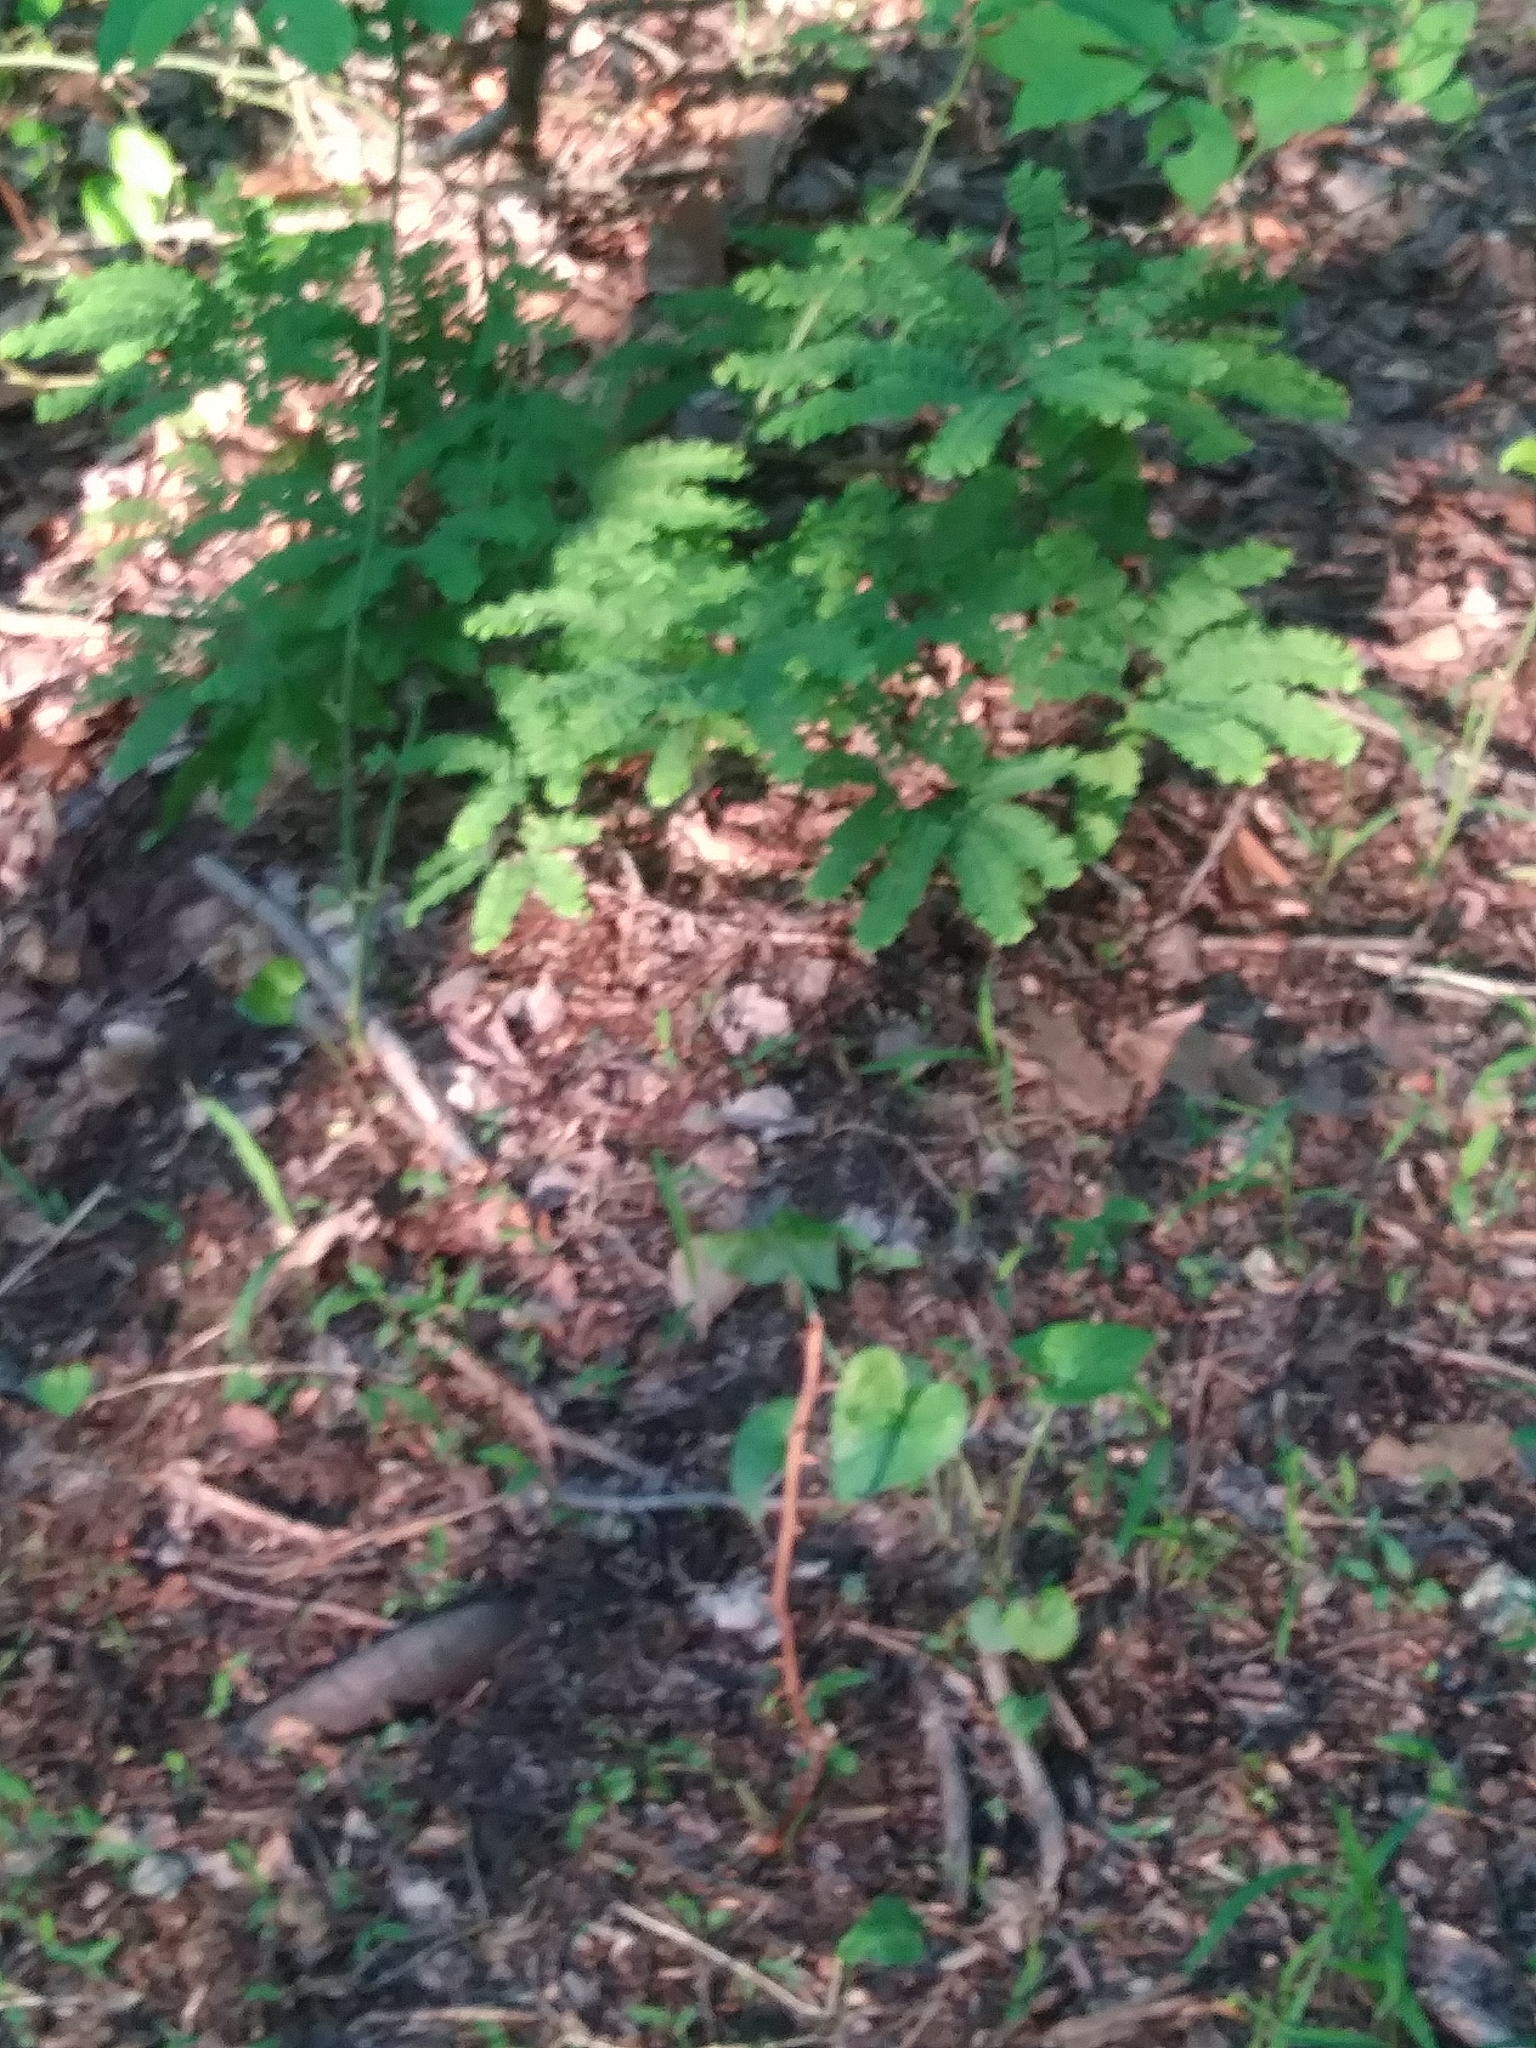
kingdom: Plantae
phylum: Tracheophyta
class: Polypodiopsida
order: Polypodiales
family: Pteridaceae
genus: Adiantum
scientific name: Adiantum pedatum
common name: Five-finger fern
